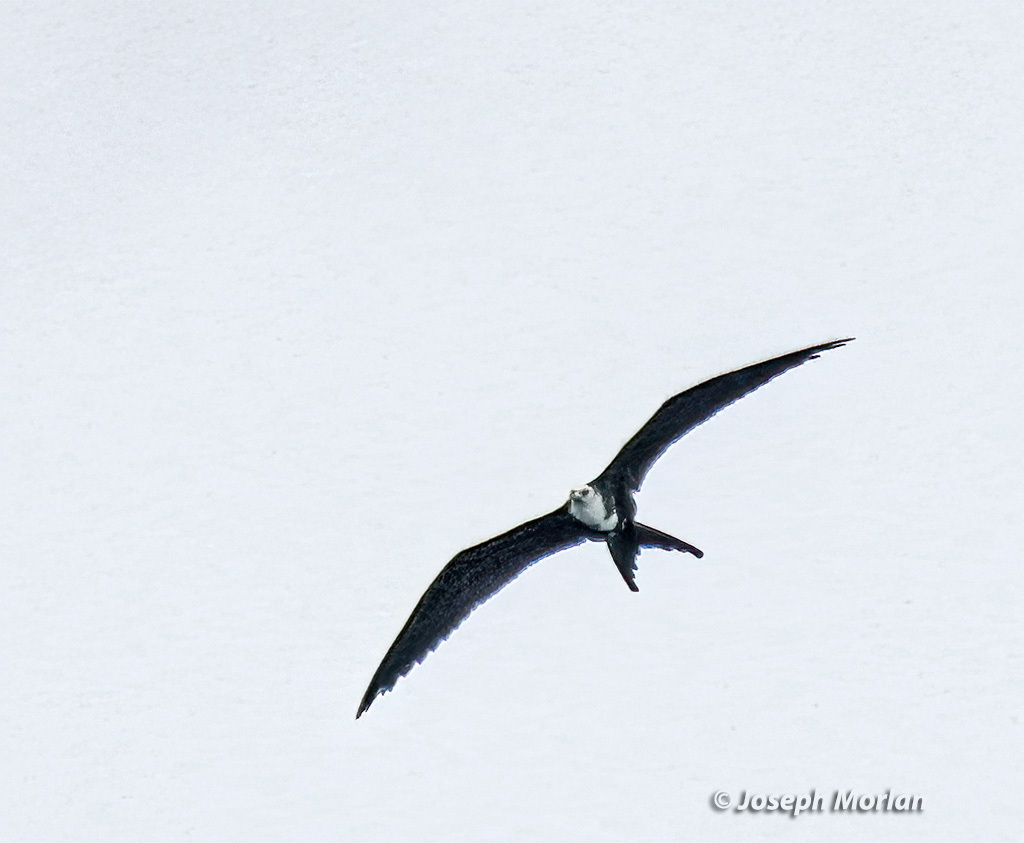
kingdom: Animalia
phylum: Chordata
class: Aves
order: Suliformes
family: Fregatidae
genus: Fregata
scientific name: Fregata magnificens
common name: Magnificent frigatebird
